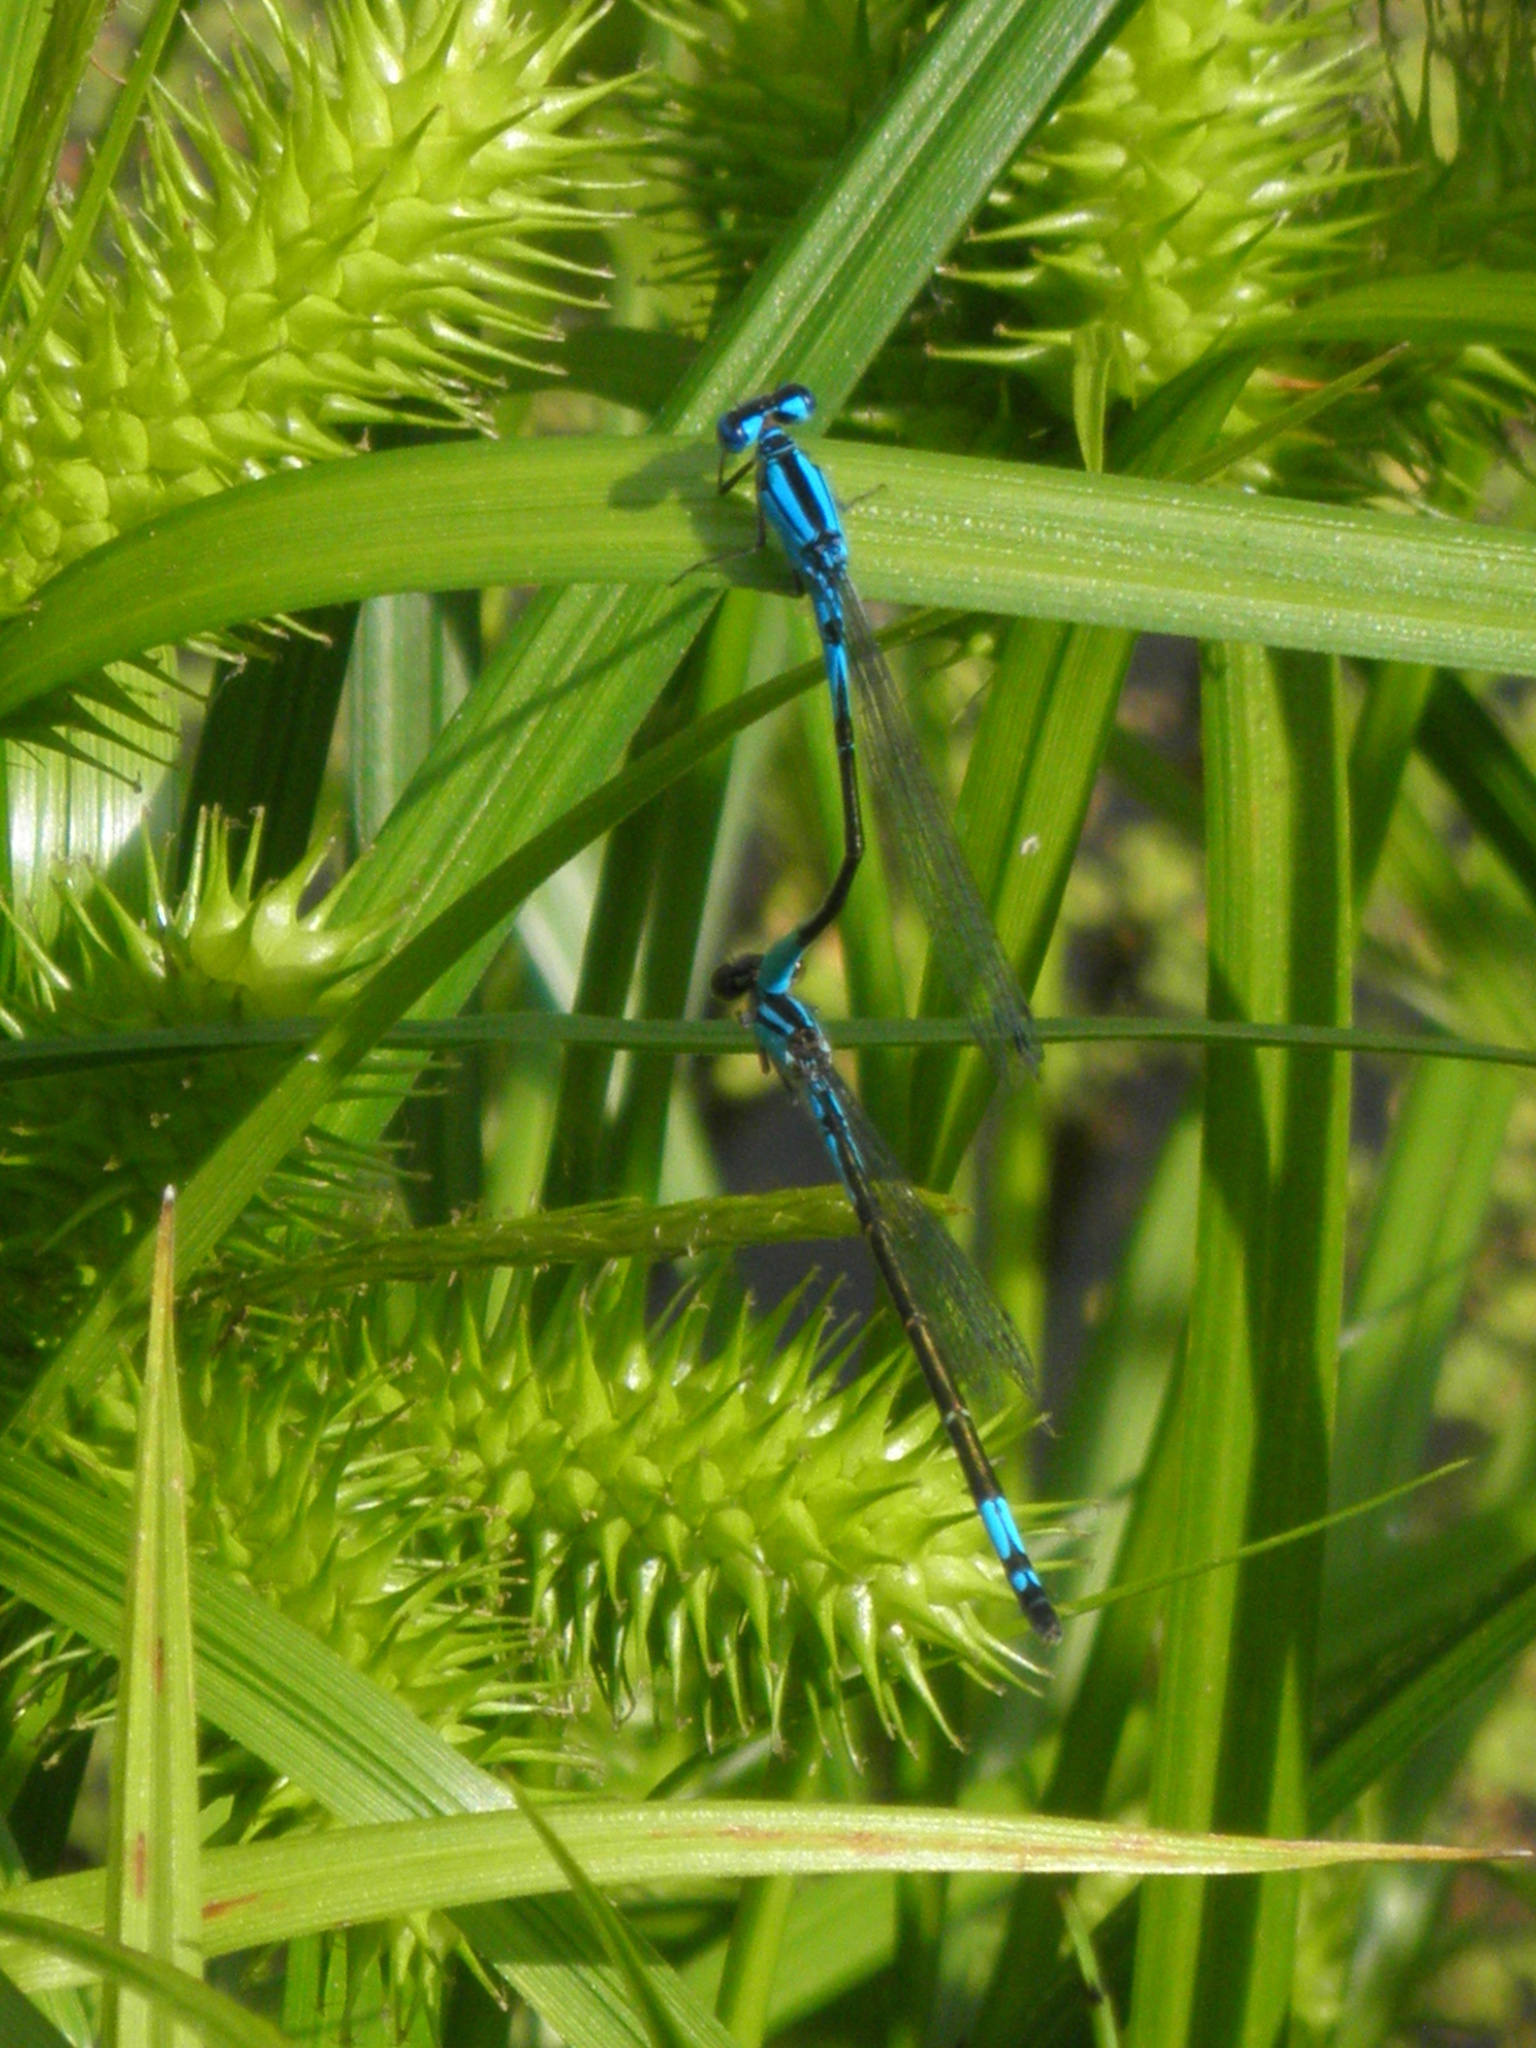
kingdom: Animalia
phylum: Arthropoda
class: Insecta
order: Odonata
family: Coenagrionidae
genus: Enallagma
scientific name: Enallagma aspersum
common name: Azure bluet
